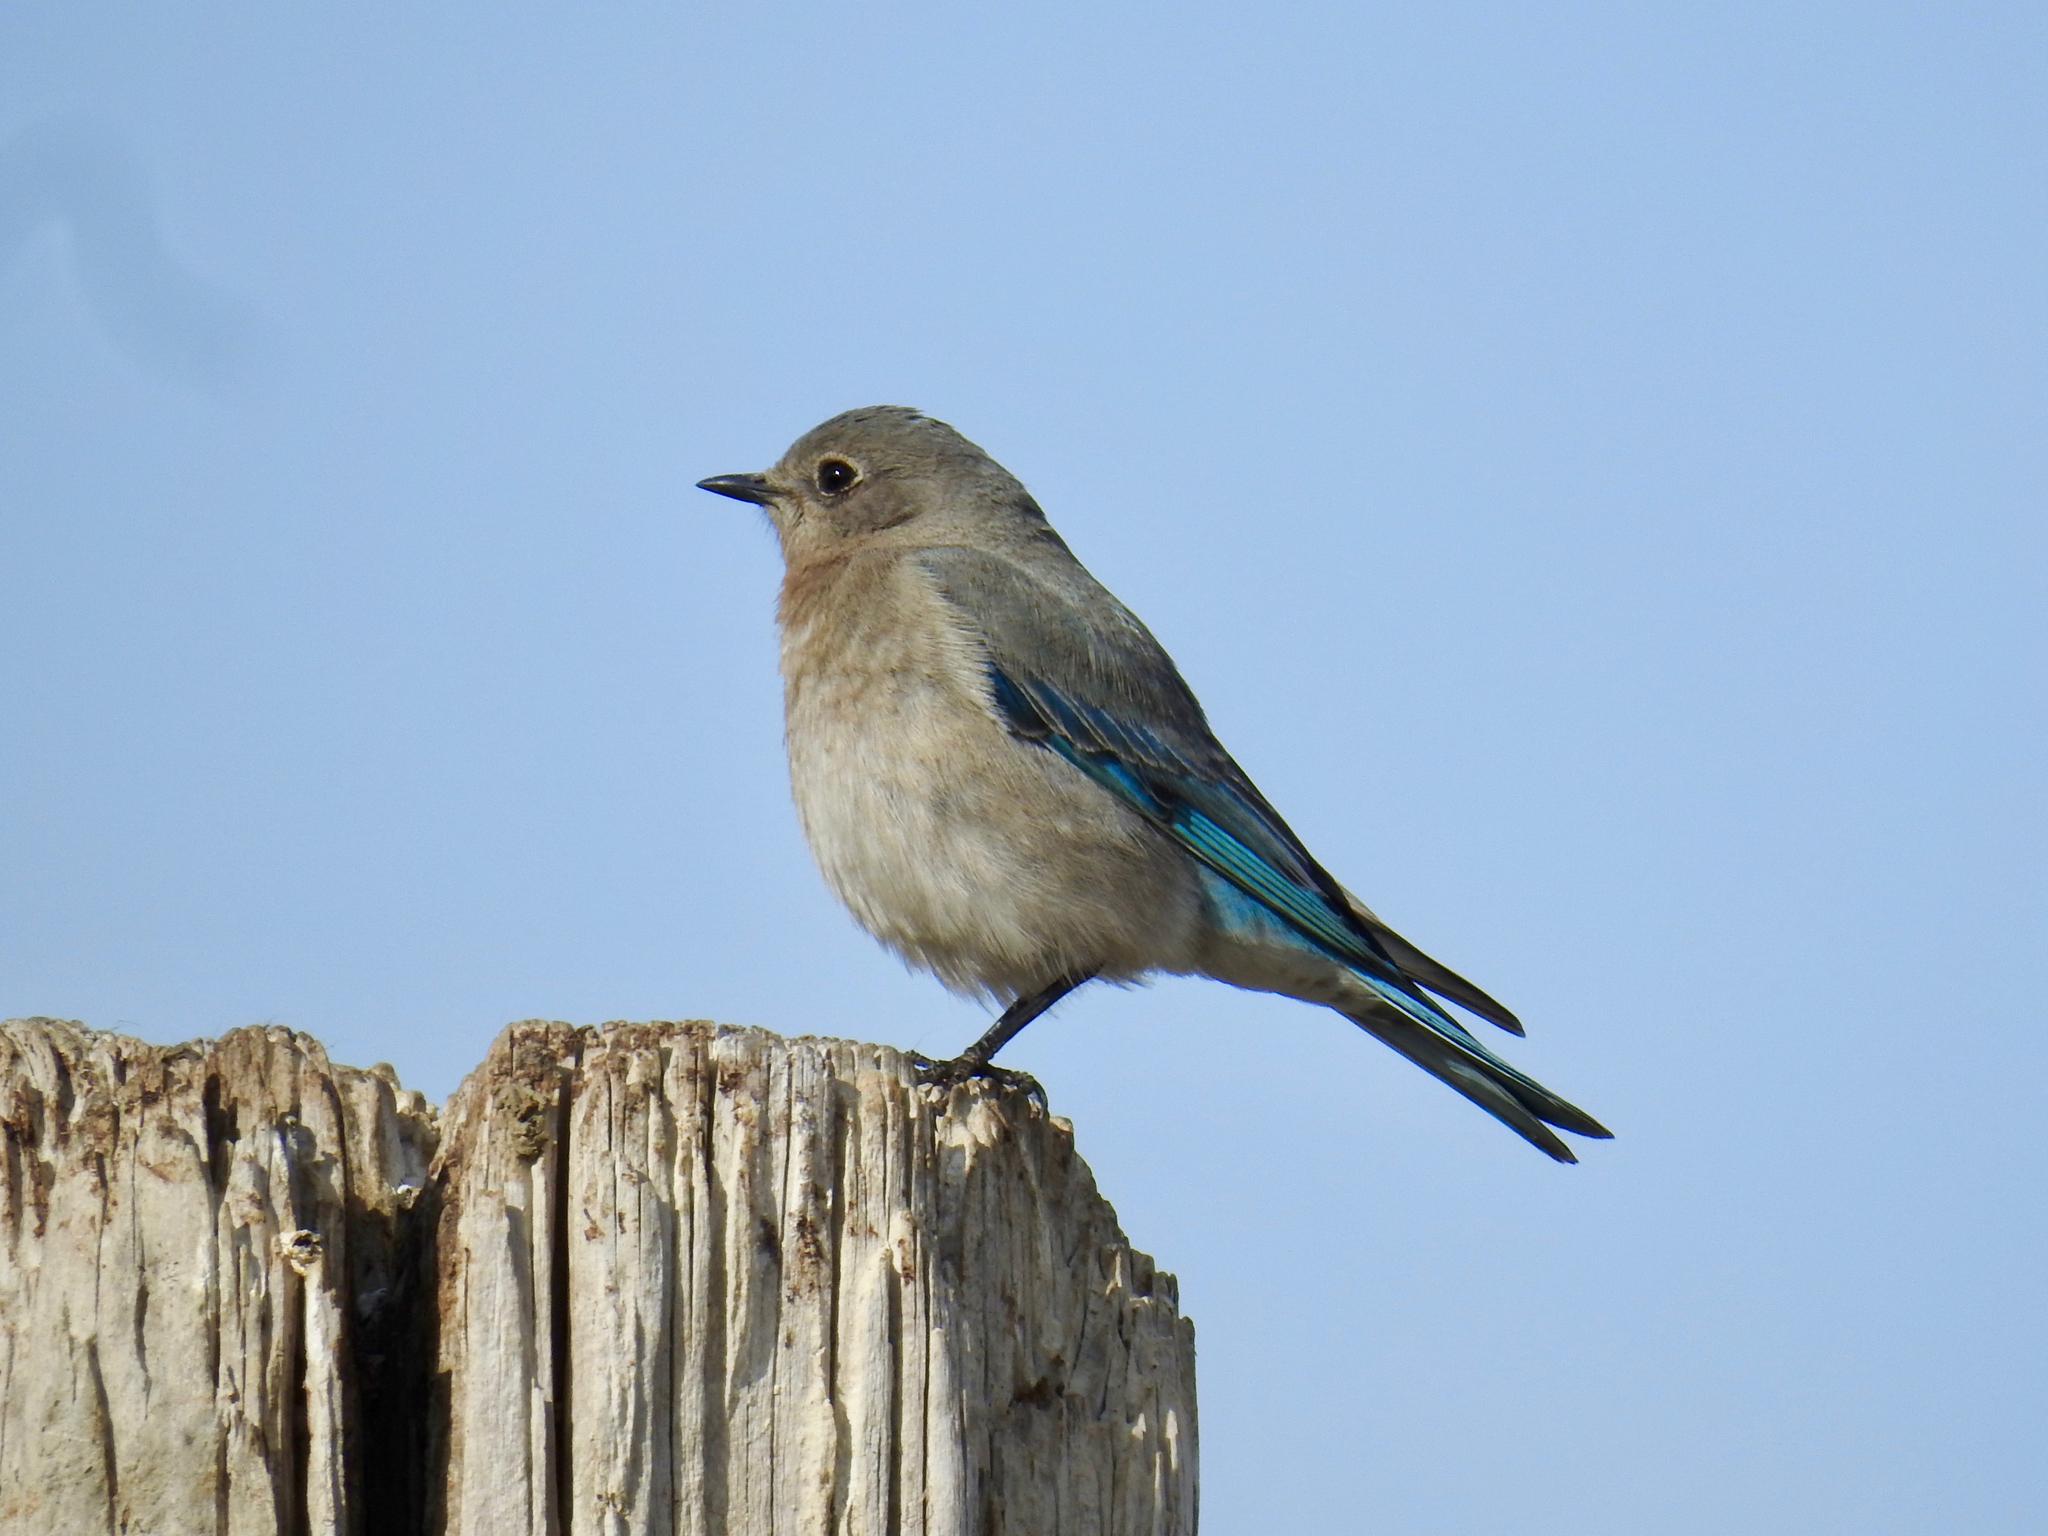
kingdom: Animalia
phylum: Chordata
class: Aves
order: Passeriformes
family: Turdidae
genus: Sialia
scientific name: Sialia currucoides
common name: Mountain bluebird
